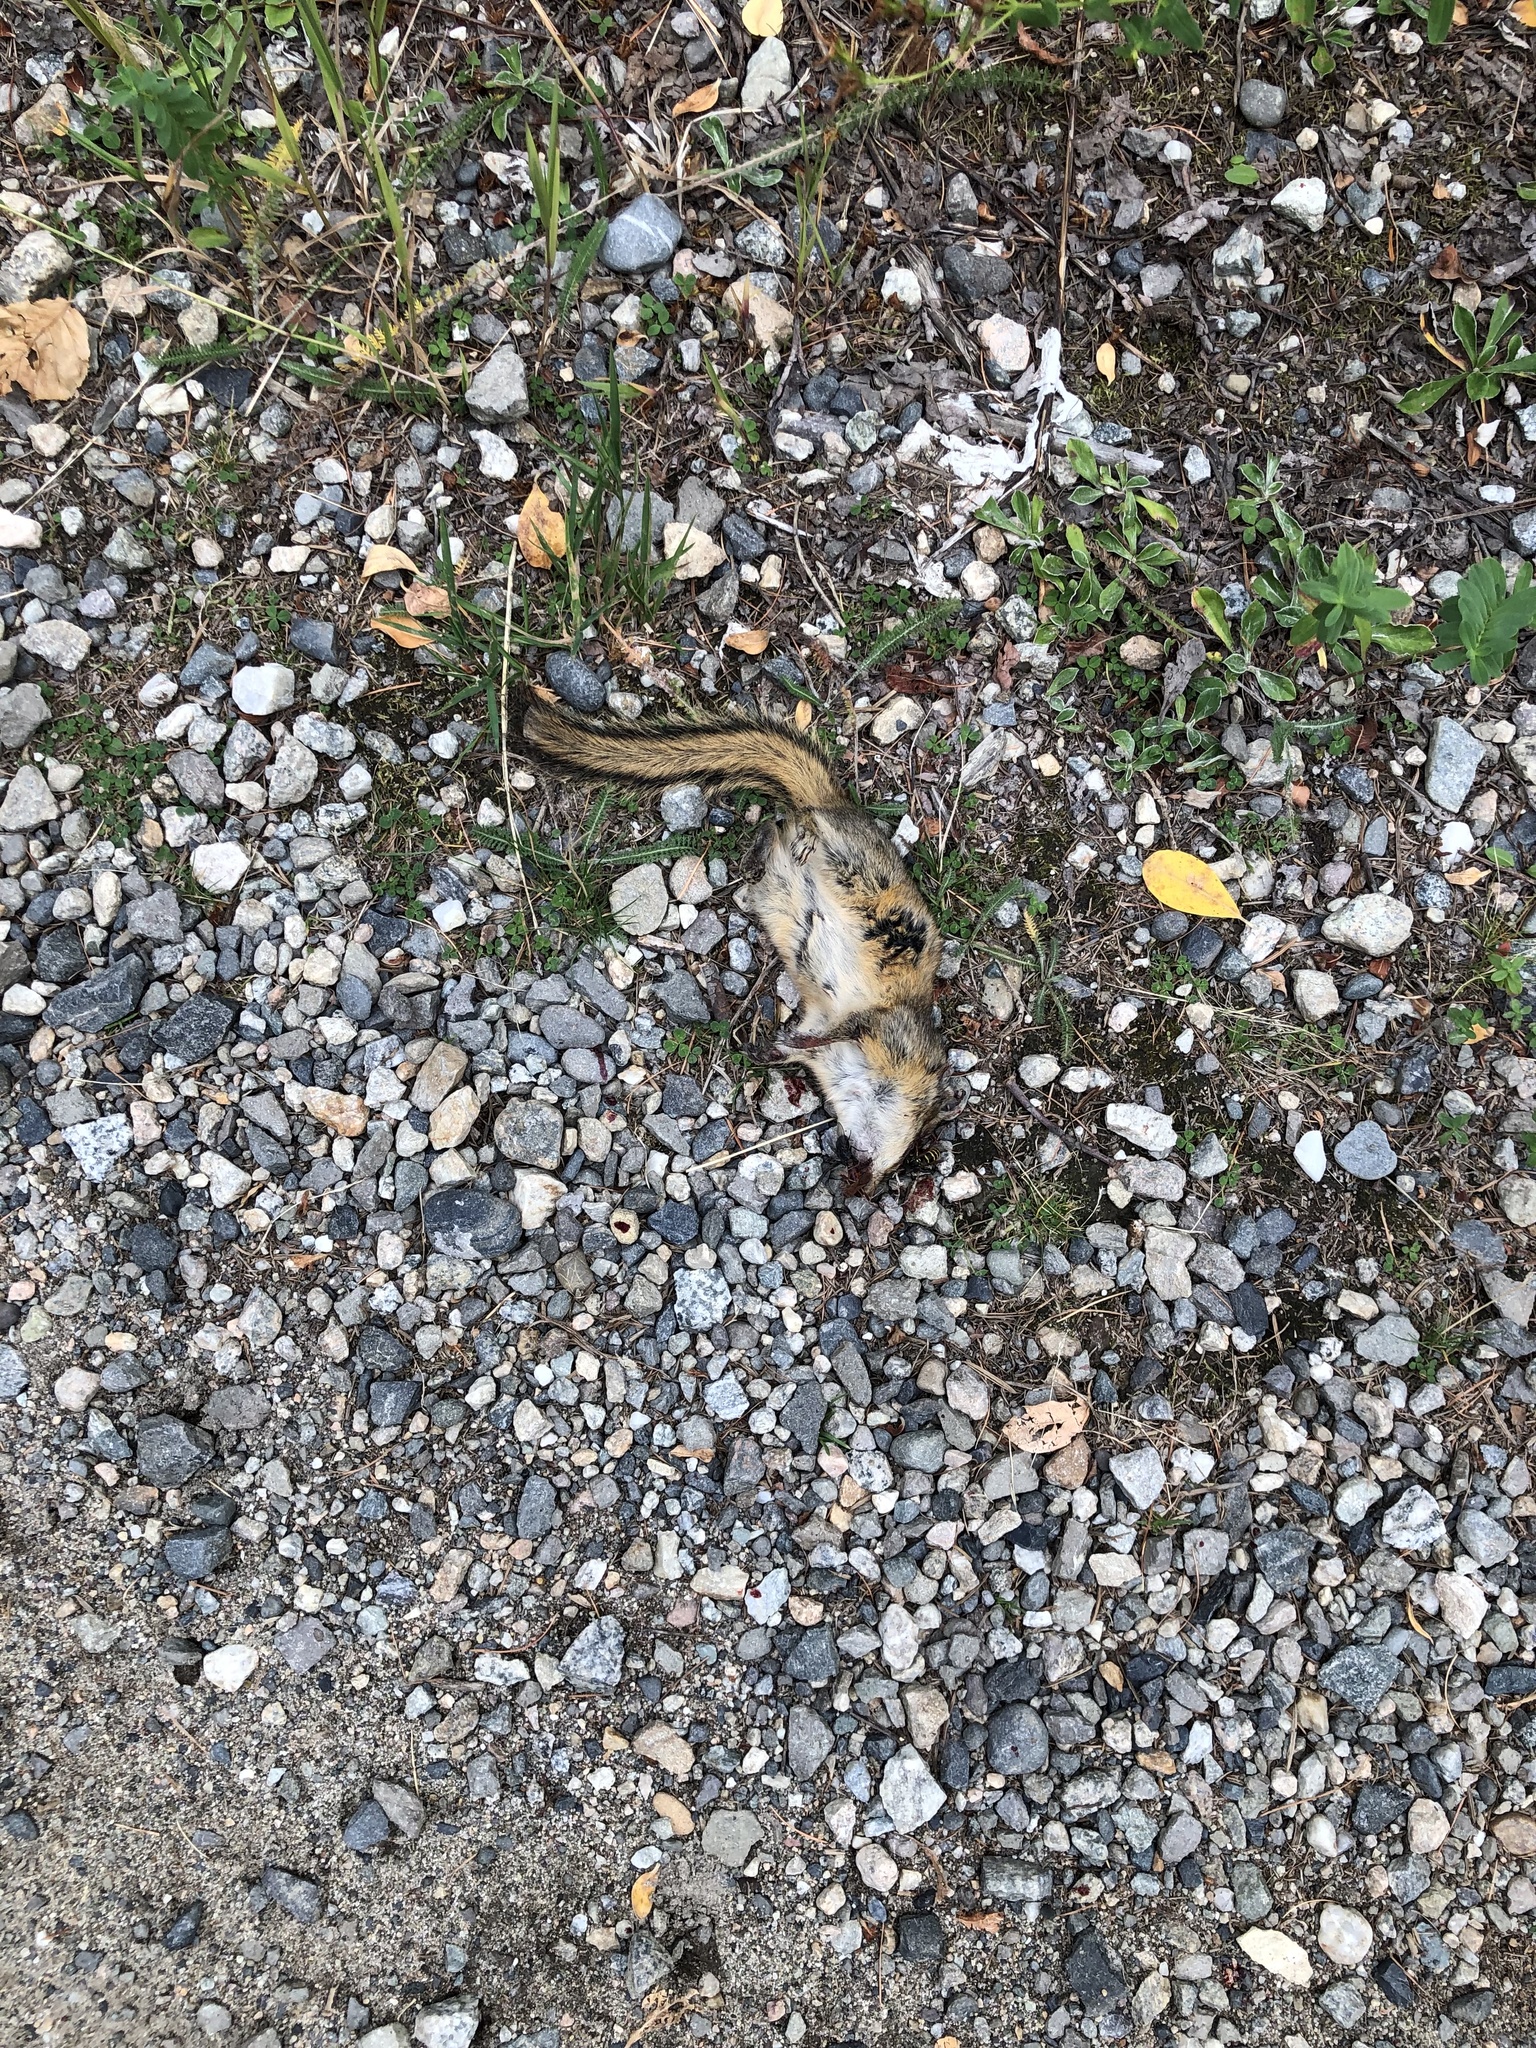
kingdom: Animalia
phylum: Chordata
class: Mammalia
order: Rodentia
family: Sciuridae
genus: Tamias
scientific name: Tamias amoenus
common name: Yellow-pine chipmunk
